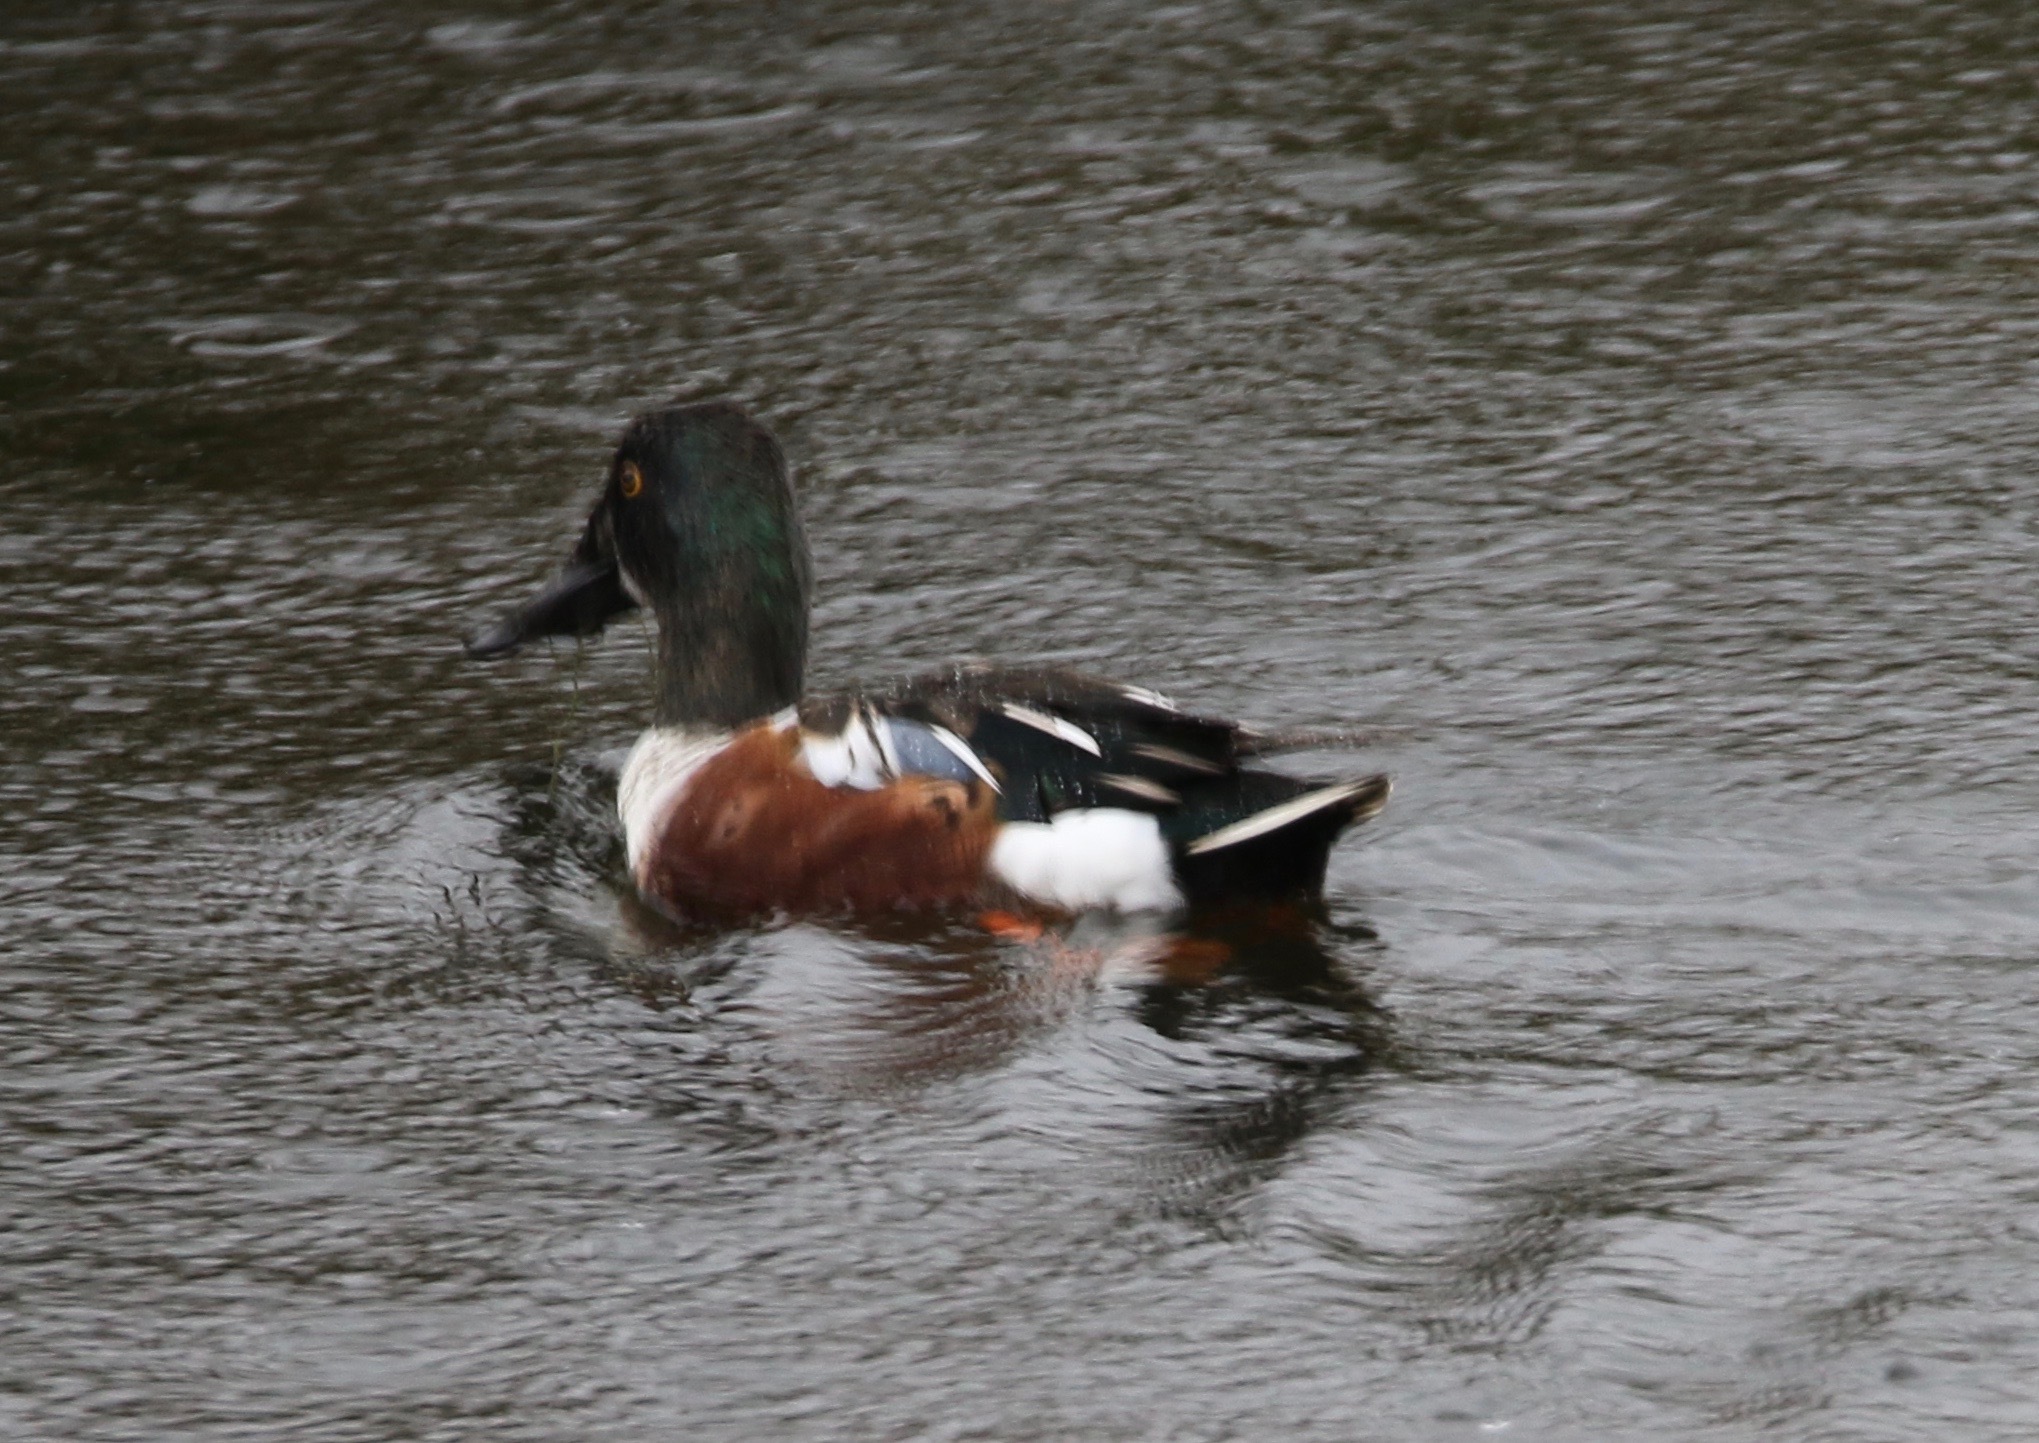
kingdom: Animalia
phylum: Chordata
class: Aves
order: Anseriformes
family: Anatidae
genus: Spatula
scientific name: Spatula clypeata
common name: Northern shoveler
